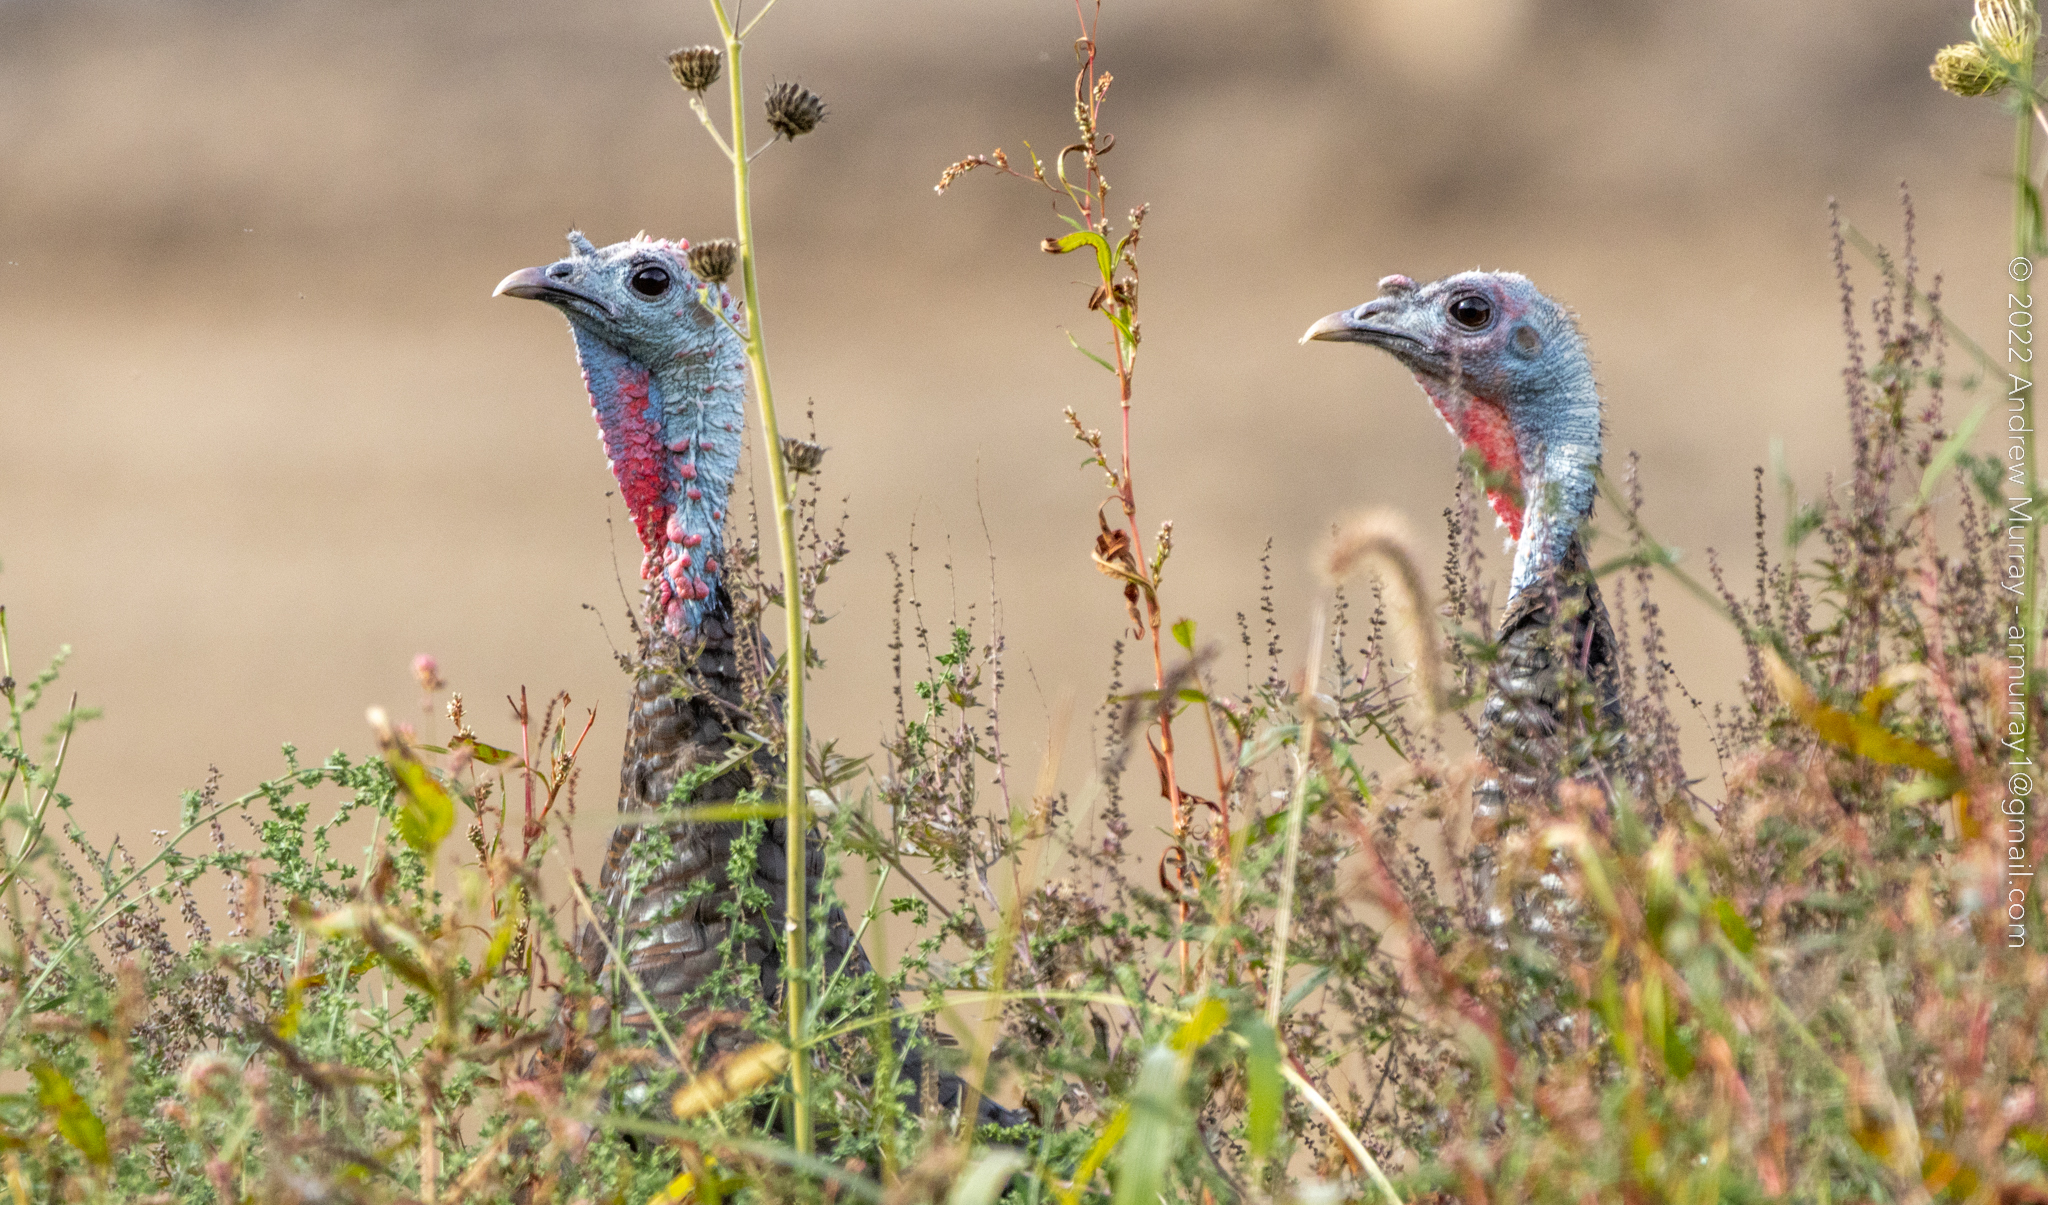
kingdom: Animalia
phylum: Chordata
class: Aves
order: Galliformes
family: Phasianidae
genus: Meleagris
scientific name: Meleagris gallopavo
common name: Wild turkey
